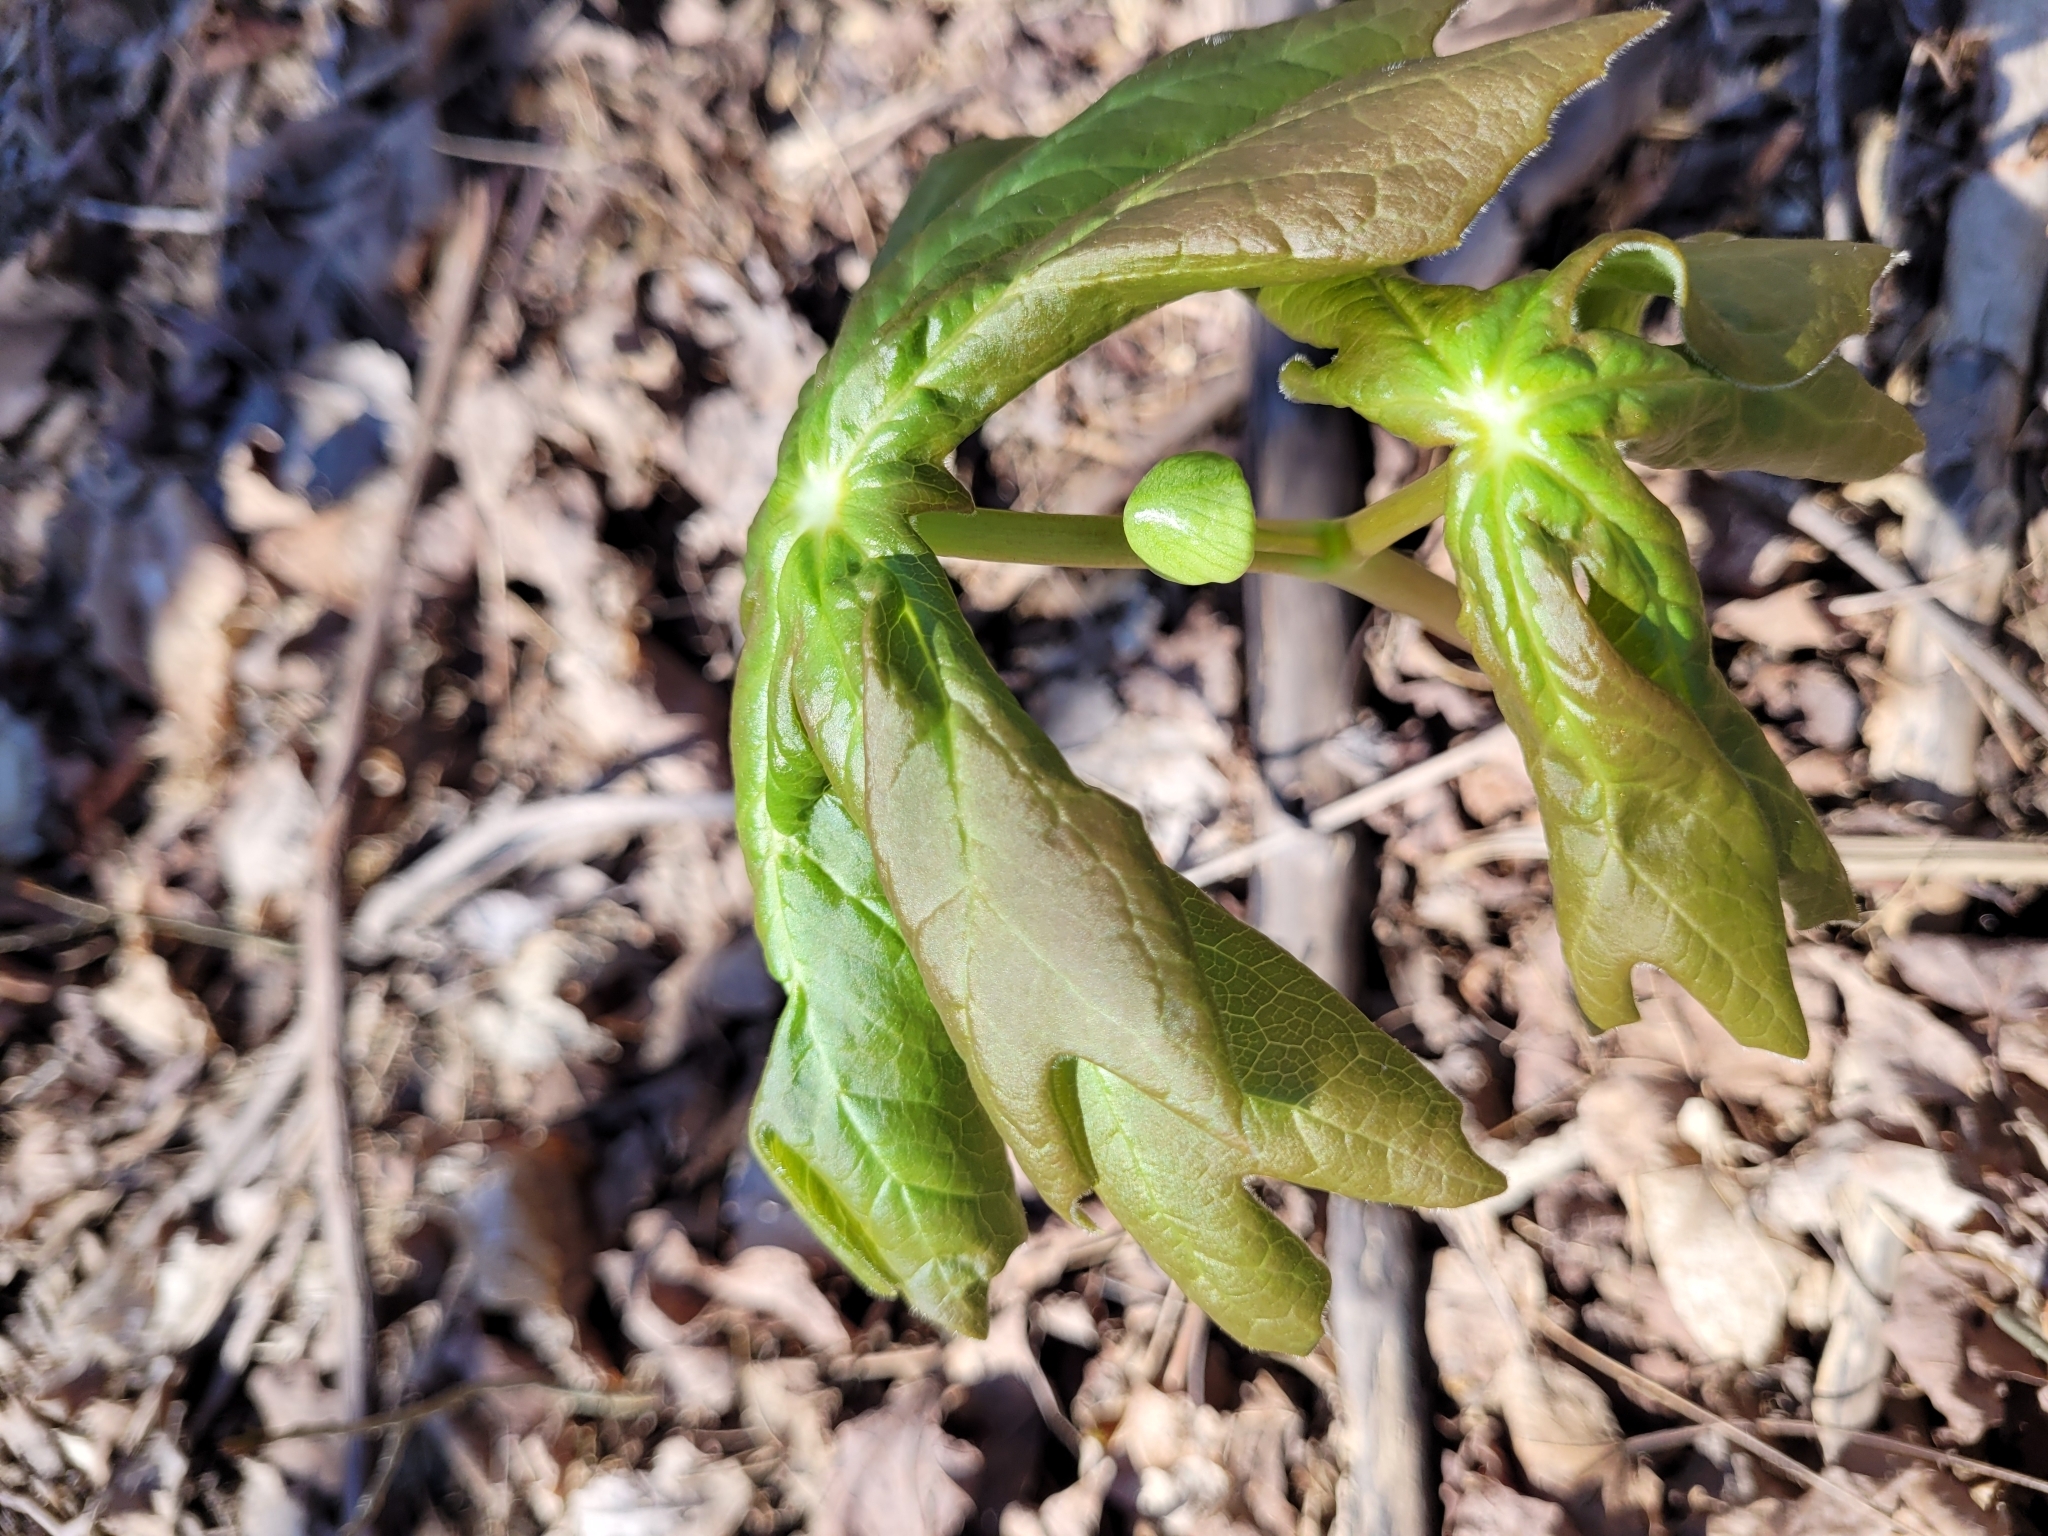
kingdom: Plantae
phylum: Tracheophyta
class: Magnoliopsida
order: Ranunculales
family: Berberidaceae
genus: Podophyllum
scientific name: Podophyllum peltatum
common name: Wild mandrake
